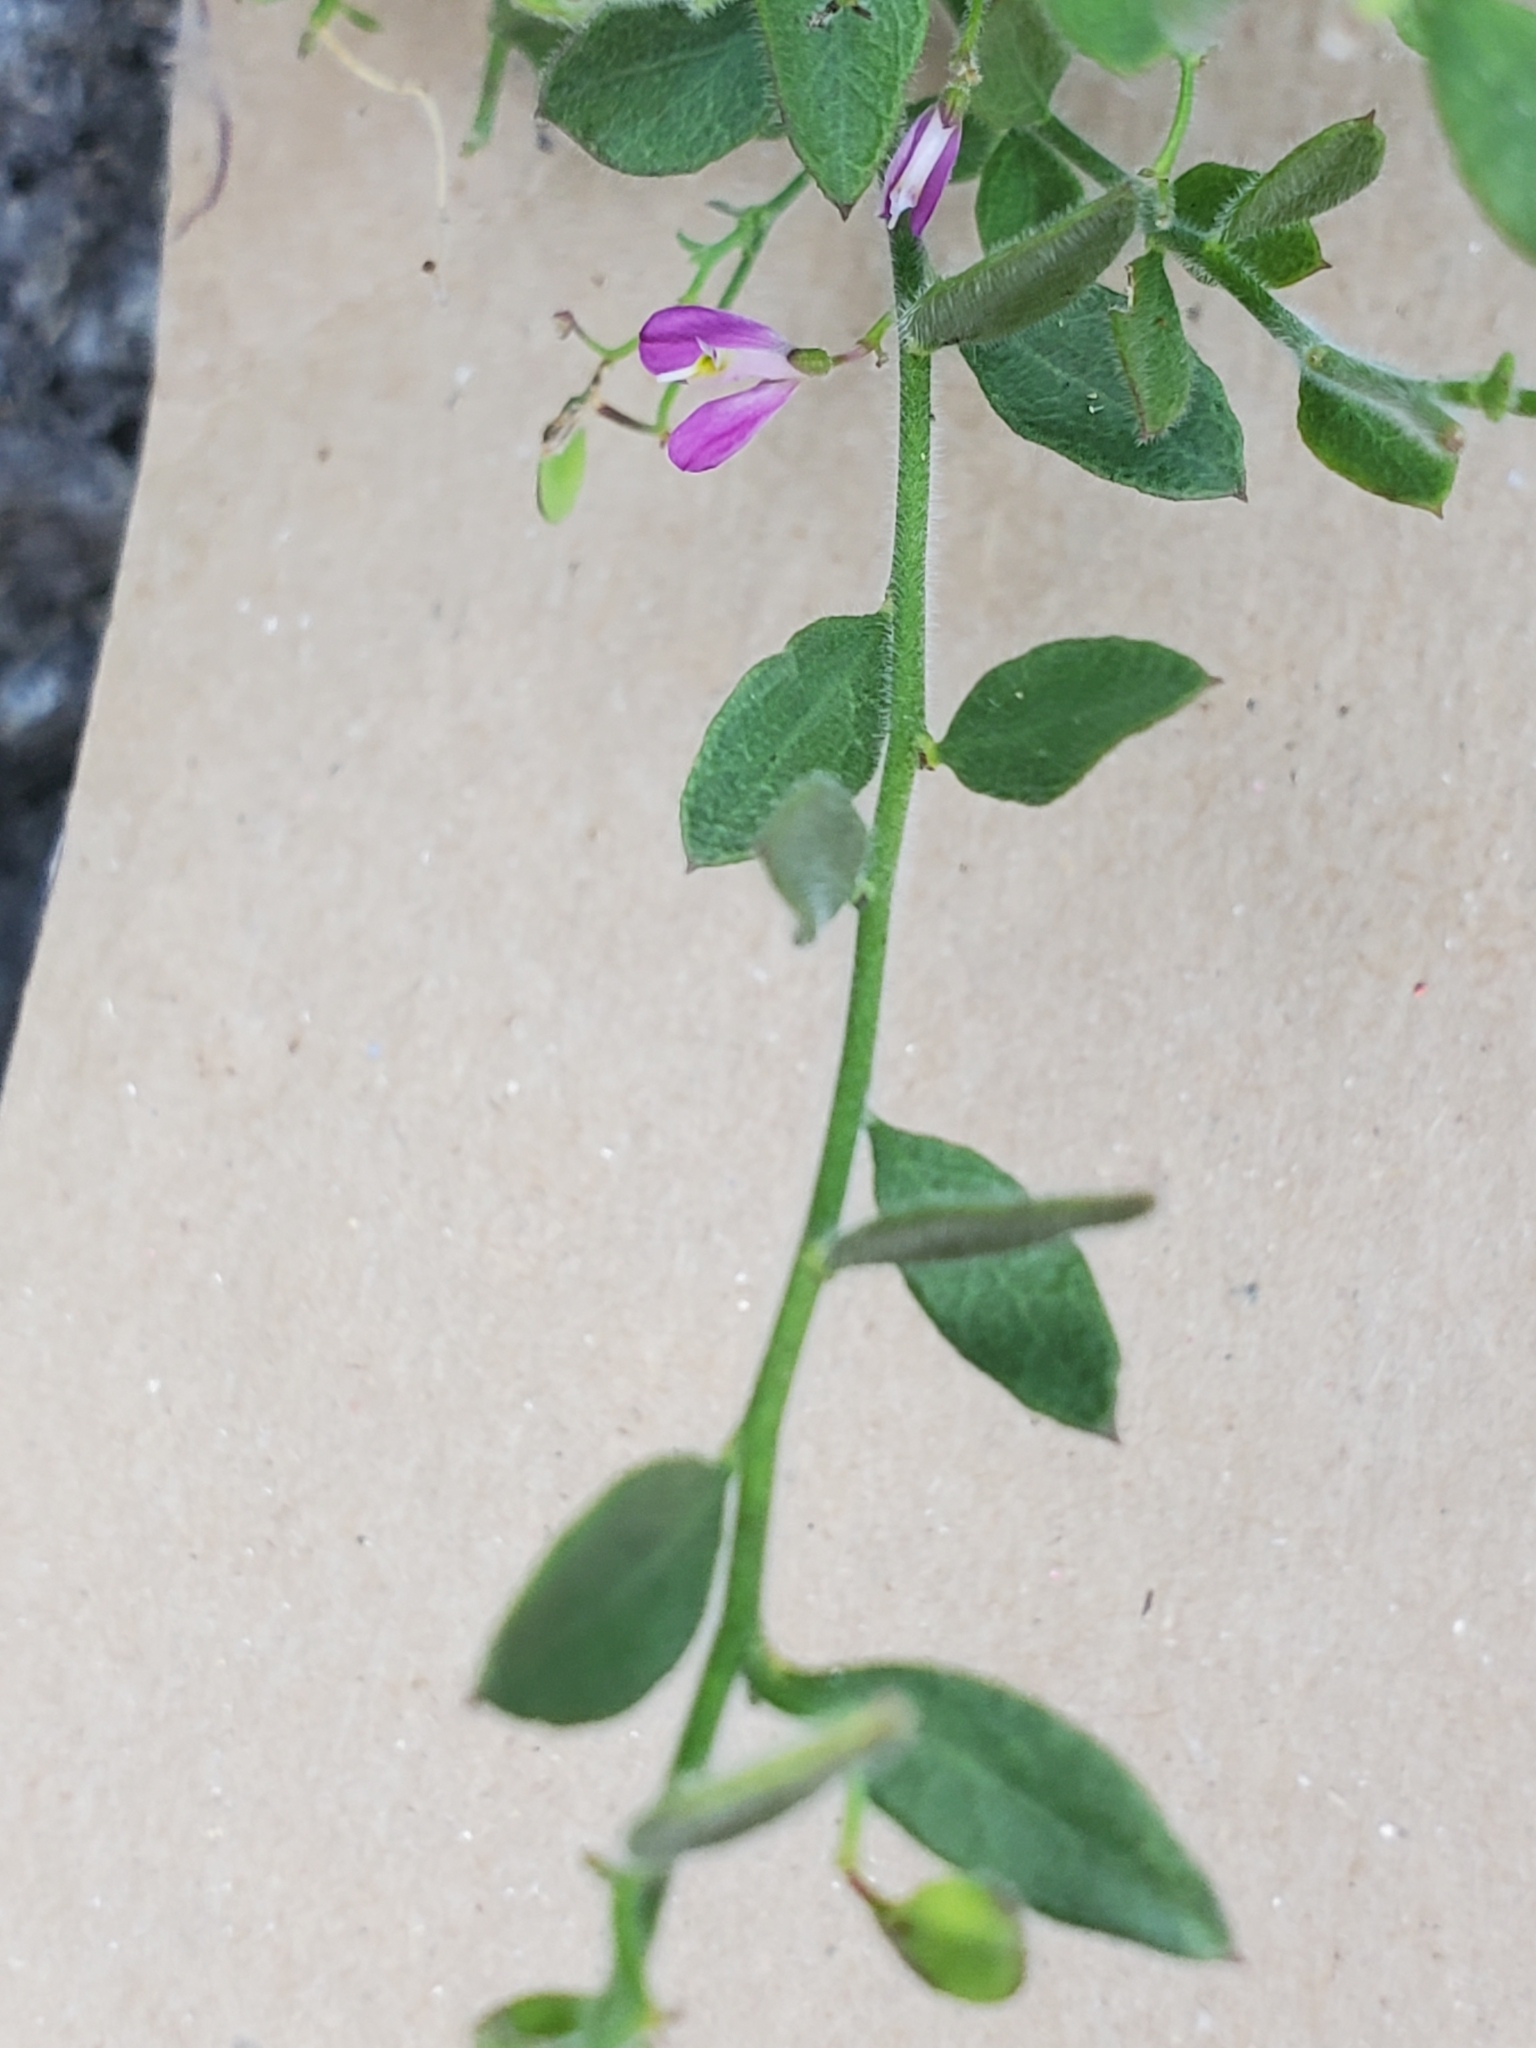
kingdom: Plantae
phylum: Tracheophyta
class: Magnoliopsida
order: Fabales
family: Polygalaceae
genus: Rhinotropis
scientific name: Rhinotropis lindheimeri
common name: Shrubby milkwort
